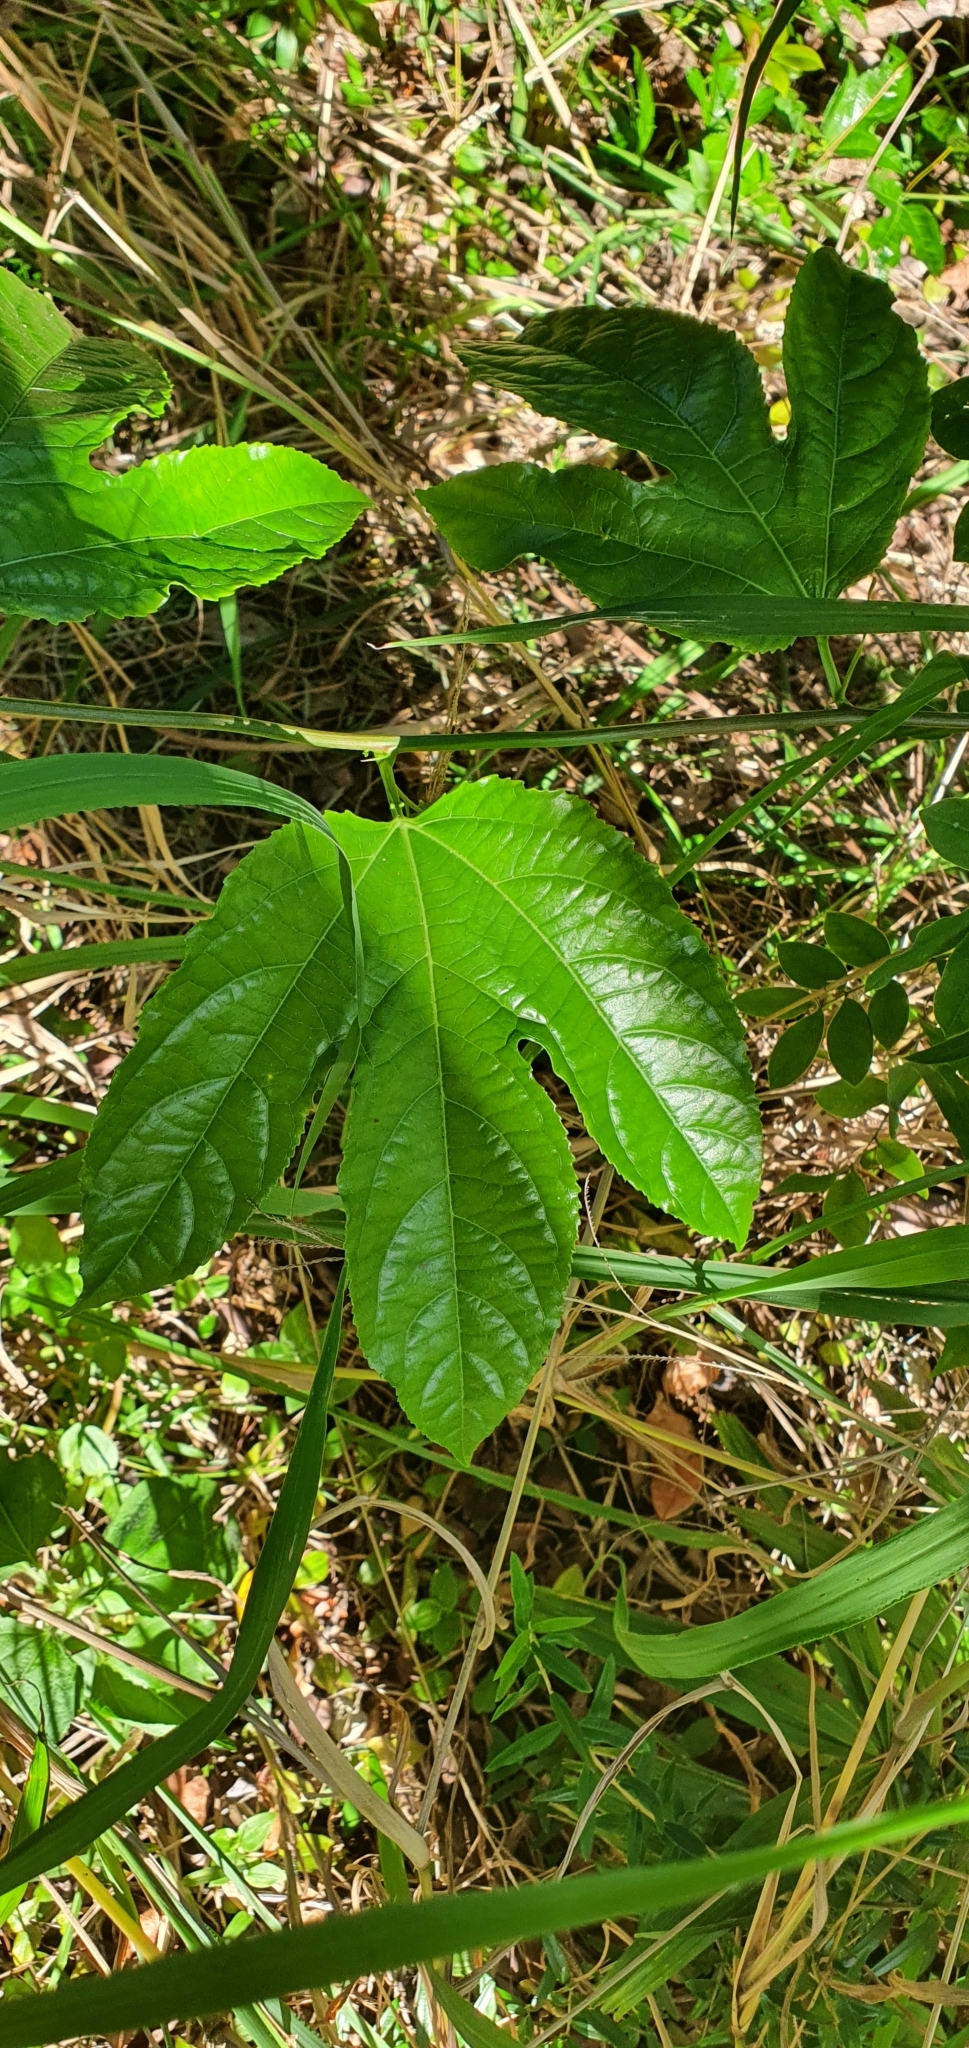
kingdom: Plantae
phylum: Tracheophyta
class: Magnoliopsida
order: Malpighiales
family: Passifloraceae
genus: Passiflora
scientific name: Passiflora edulis
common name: Purple granadilla
